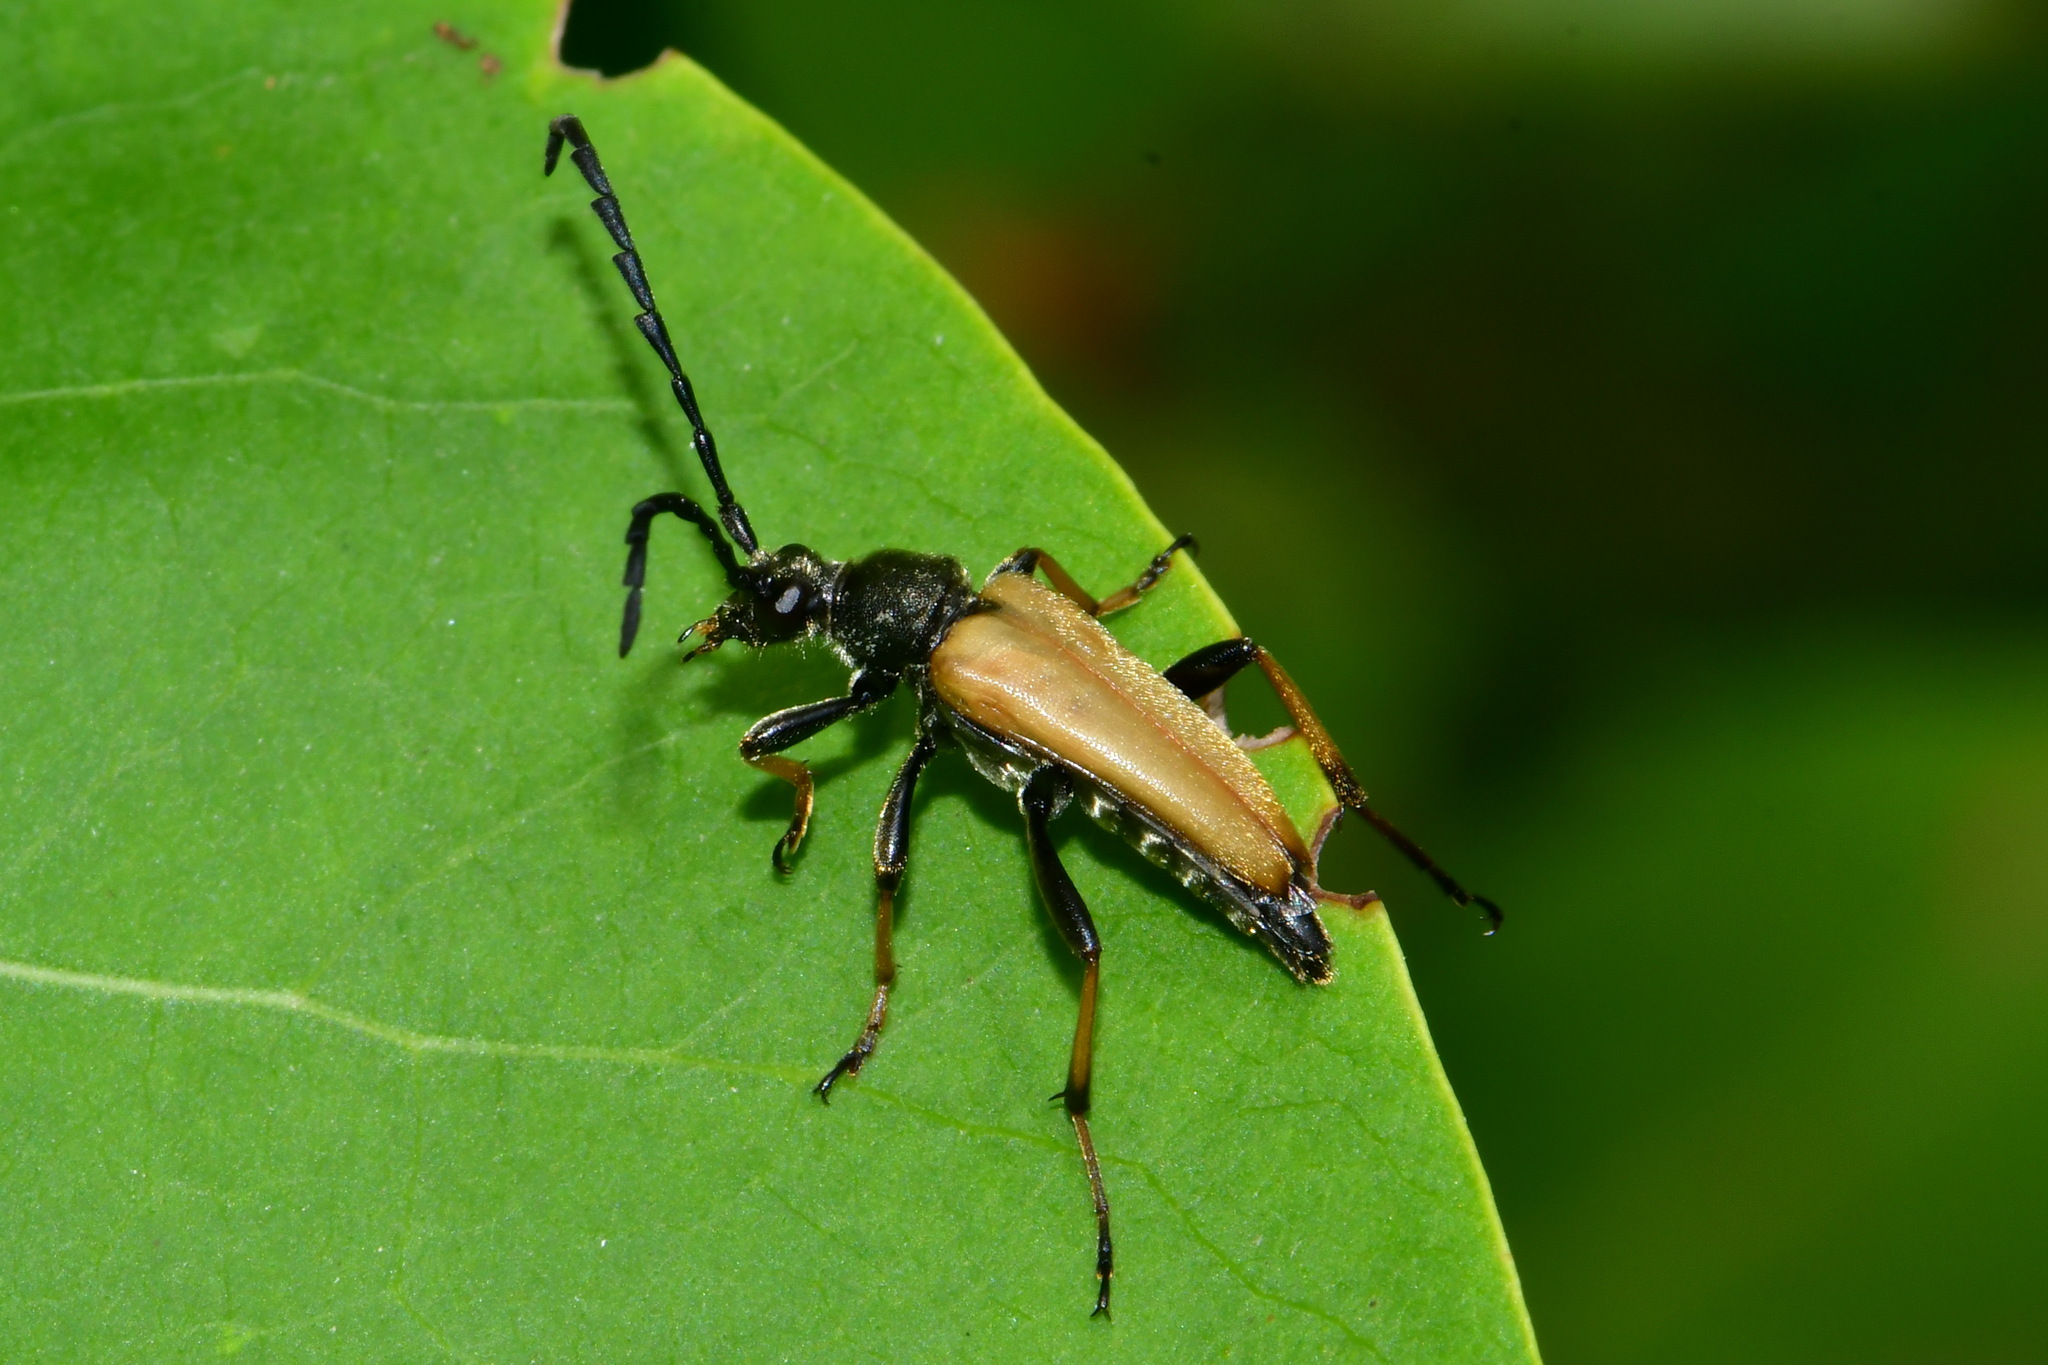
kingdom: Animalia
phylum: Arthropoda
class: Insecta
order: Coleoptera
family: Cerambycidae
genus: Stictoleptura
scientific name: Stictoleptura rubra
